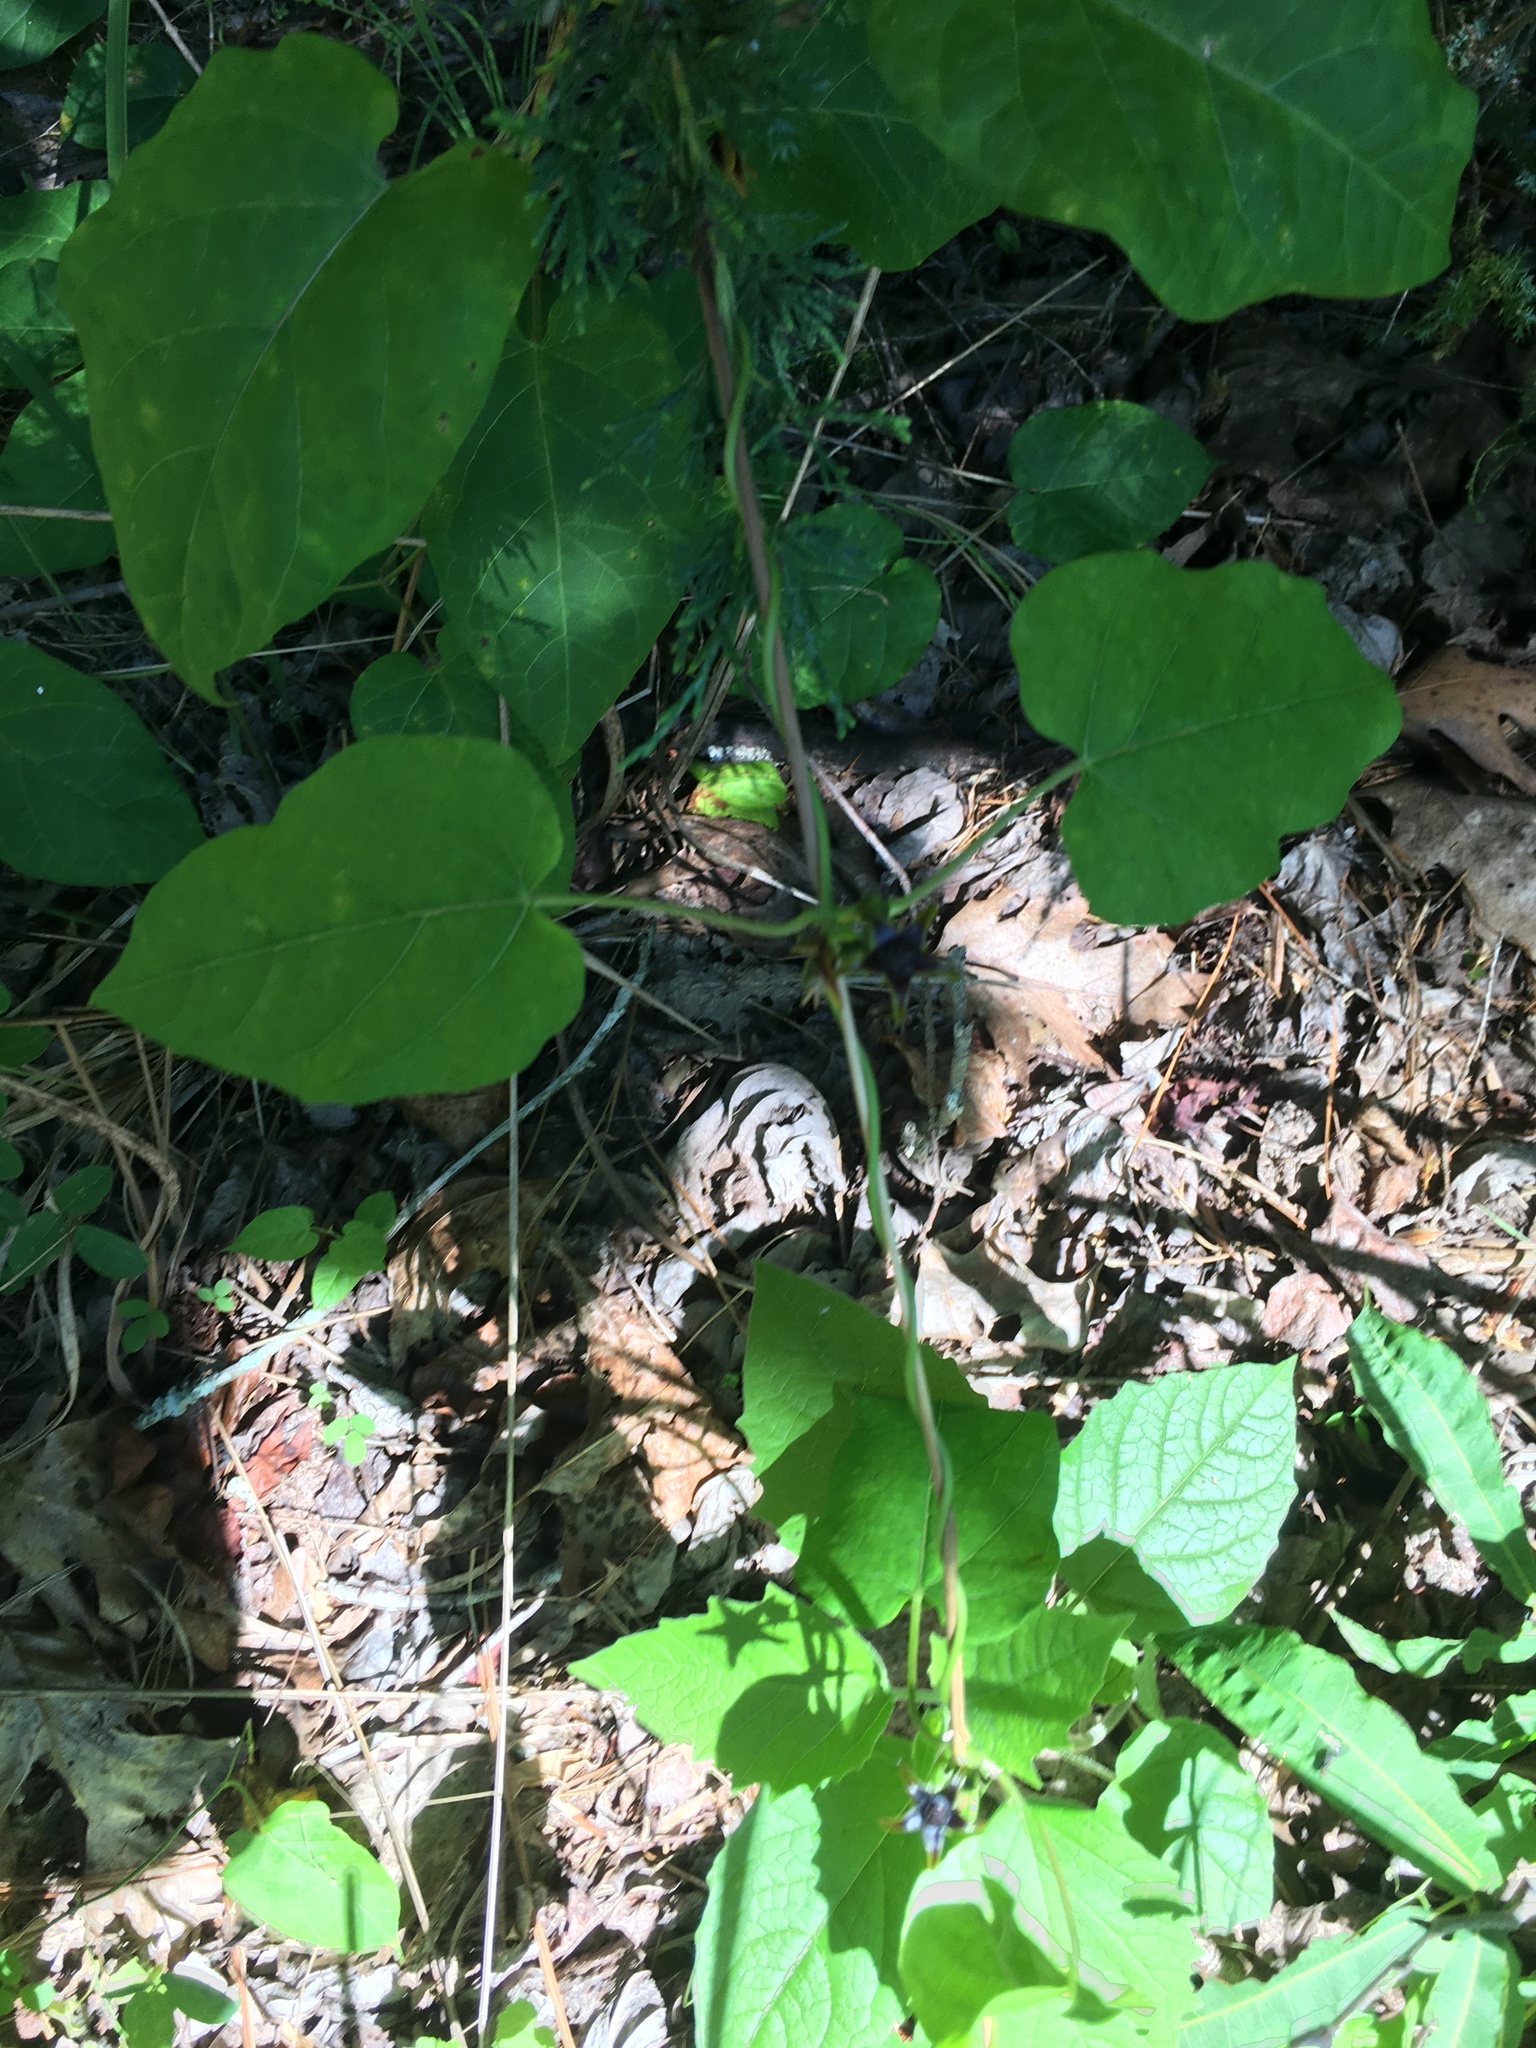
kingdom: Plantae
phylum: Tracheophyta
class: Magnoliopsida
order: Gentianales
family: Apocynaceae
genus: Gonolobus
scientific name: Gonolobus suberosus
